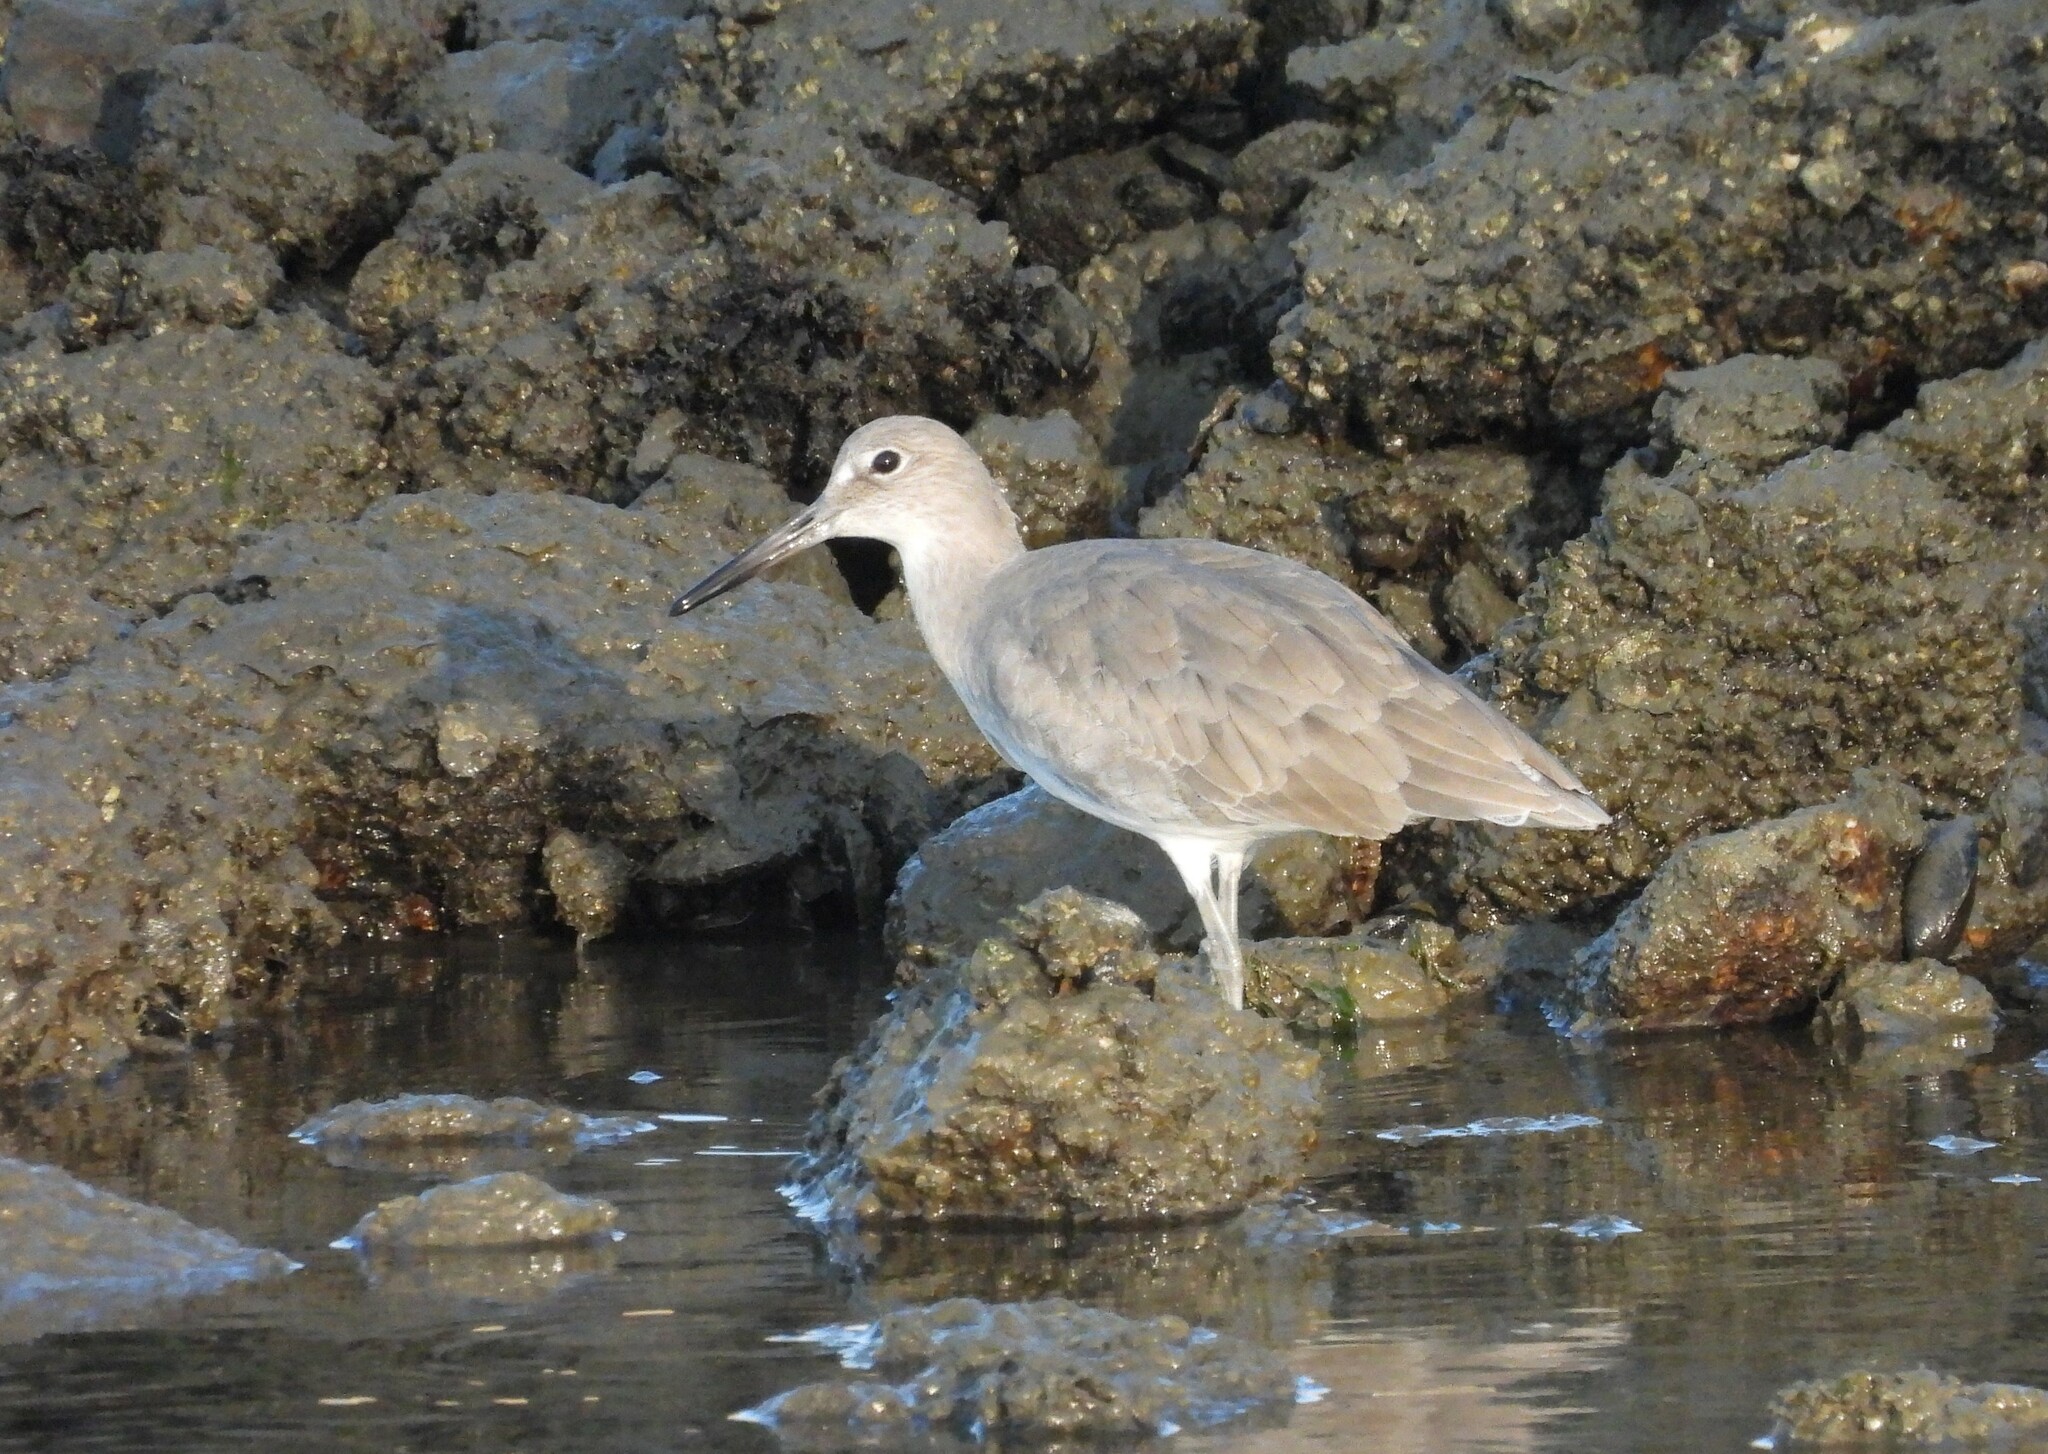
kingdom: Animalia
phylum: Chordata
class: Aves
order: Charadriiformes
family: Scolopacidae
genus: Tringa
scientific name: Tringa semipalmata
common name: Willet
